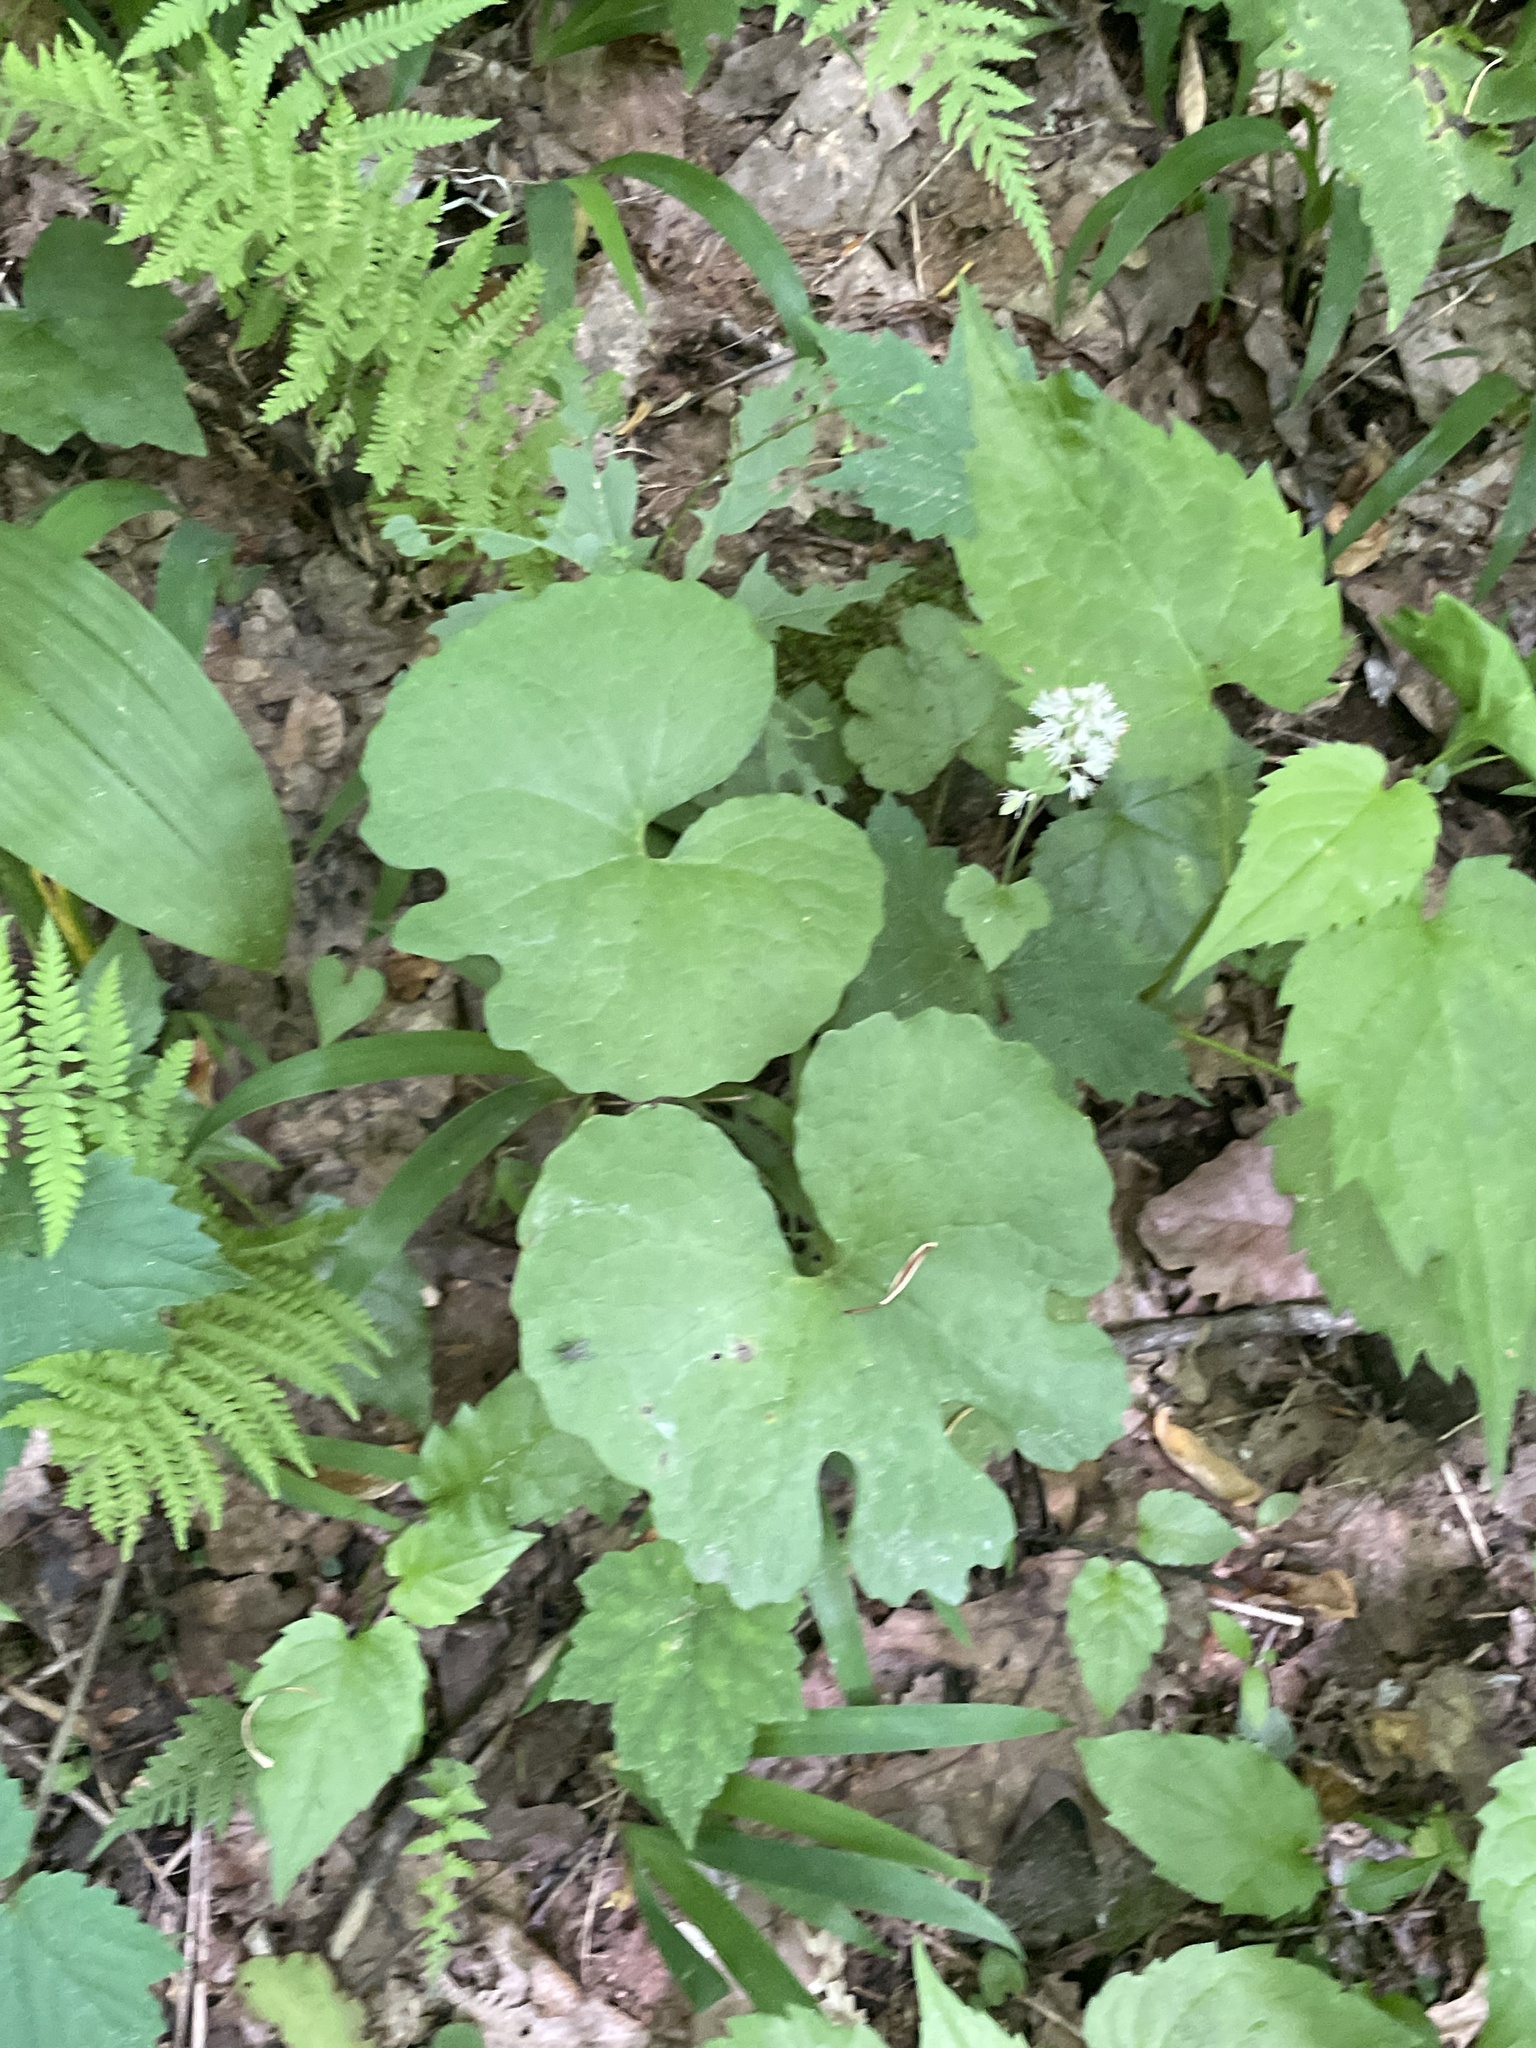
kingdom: Plantae
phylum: Tracheophyta
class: Magnoliopsida
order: Ranunculales
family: Papaveraceae
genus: Sanguinaria
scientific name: Sanguinaria canadensis
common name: Bloodroot
